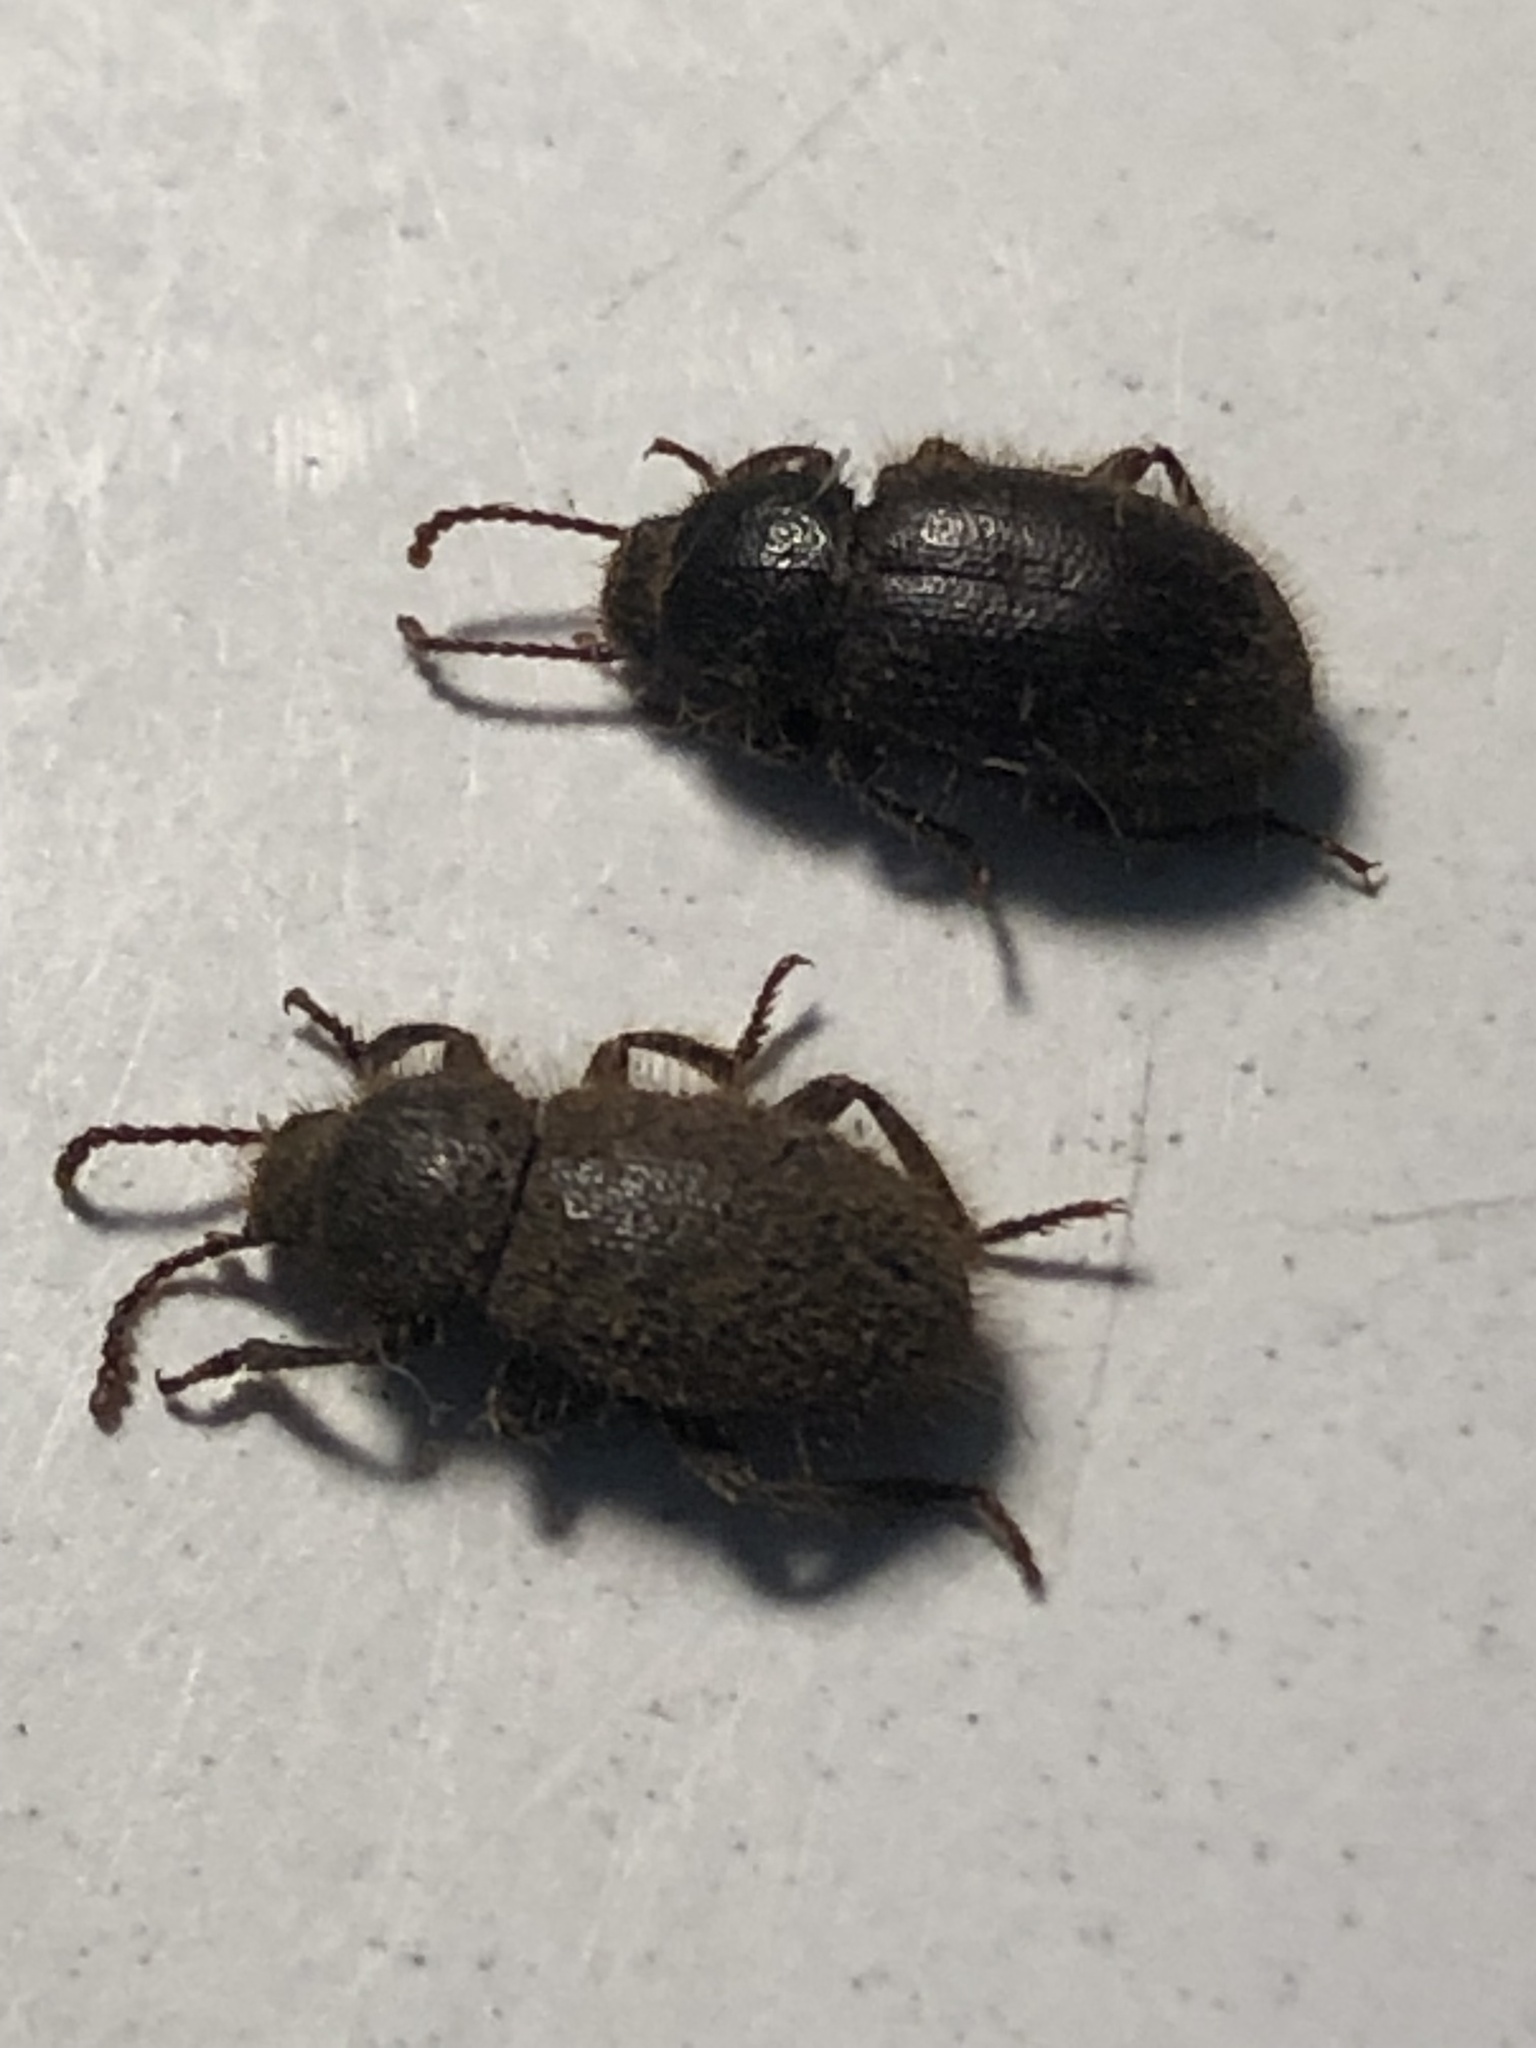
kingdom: Animalia
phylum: Arthropoda
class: Insecta
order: Coleoptera
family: Tenebrionidae
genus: Eleodes
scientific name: Eleodes littoralis
